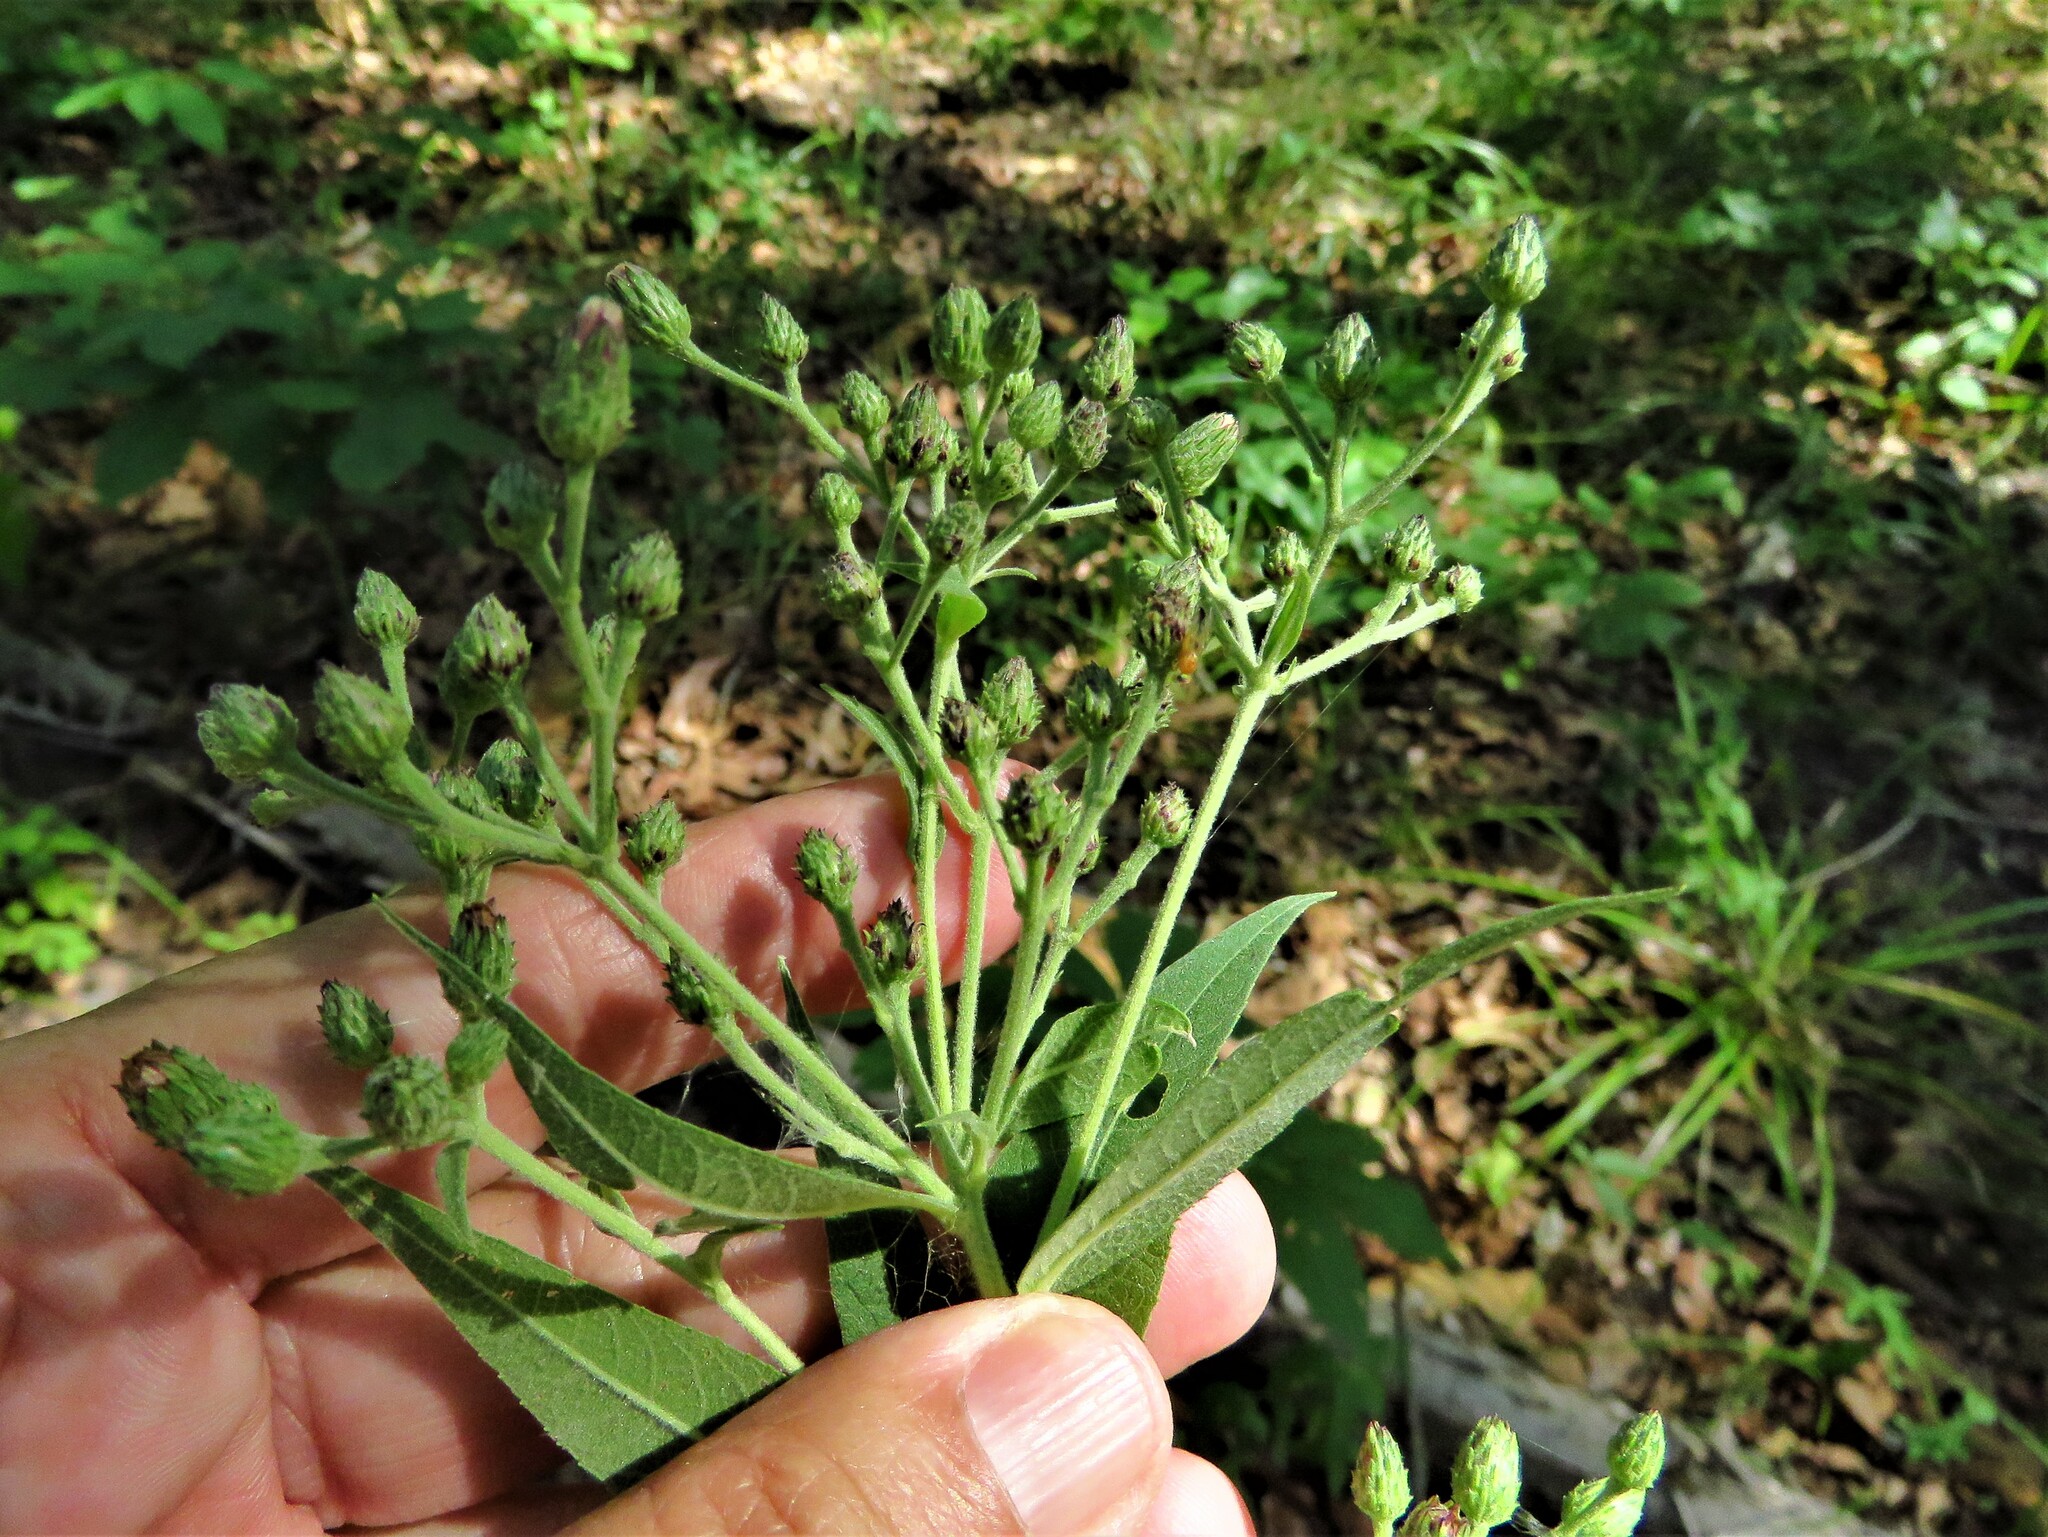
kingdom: Plantae
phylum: Tracheophyta
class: Magnoliopsida
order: Asterales
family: Asteraceae
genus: Vernonia
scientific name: Vernonia baldwinii
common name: Western ironweed
